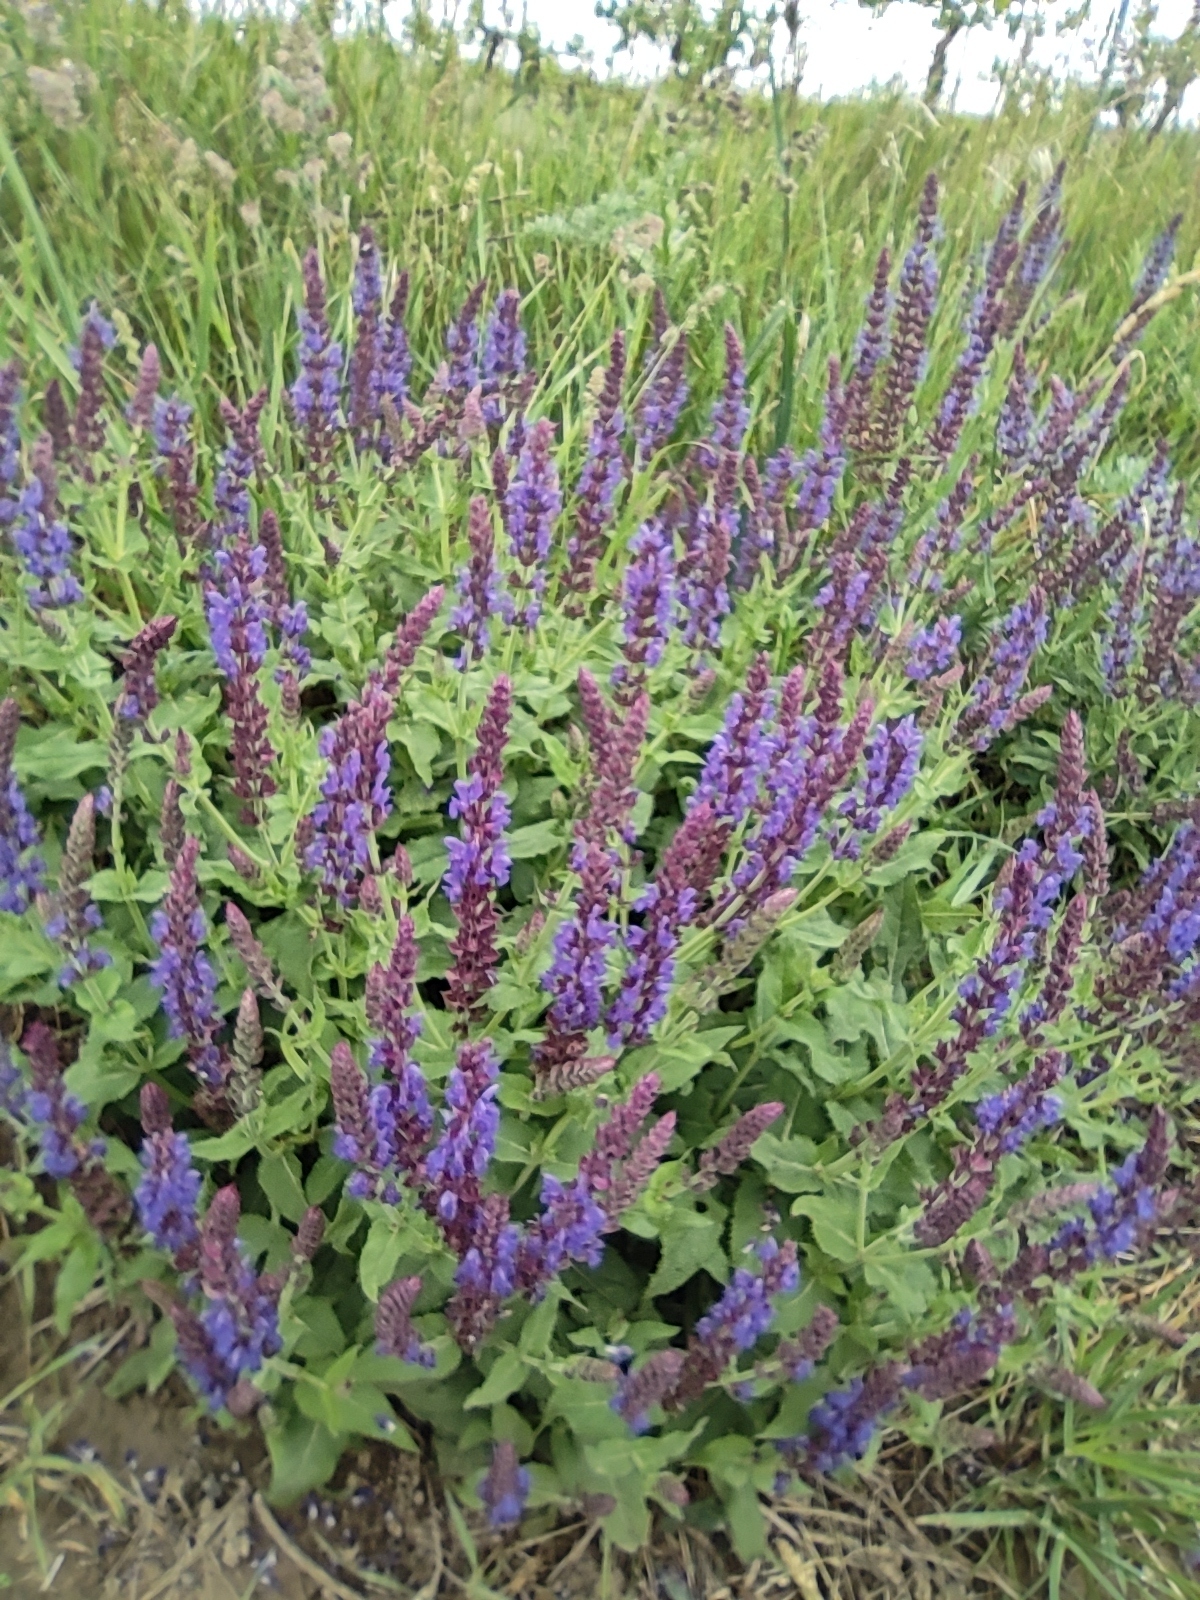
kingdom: Plantae
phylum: Tracheophyta
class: Magnoliopsida
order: Lamiales
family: Lamiaceae
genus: Salvia
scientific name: Salvia nemorosa
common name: Balkan clary
